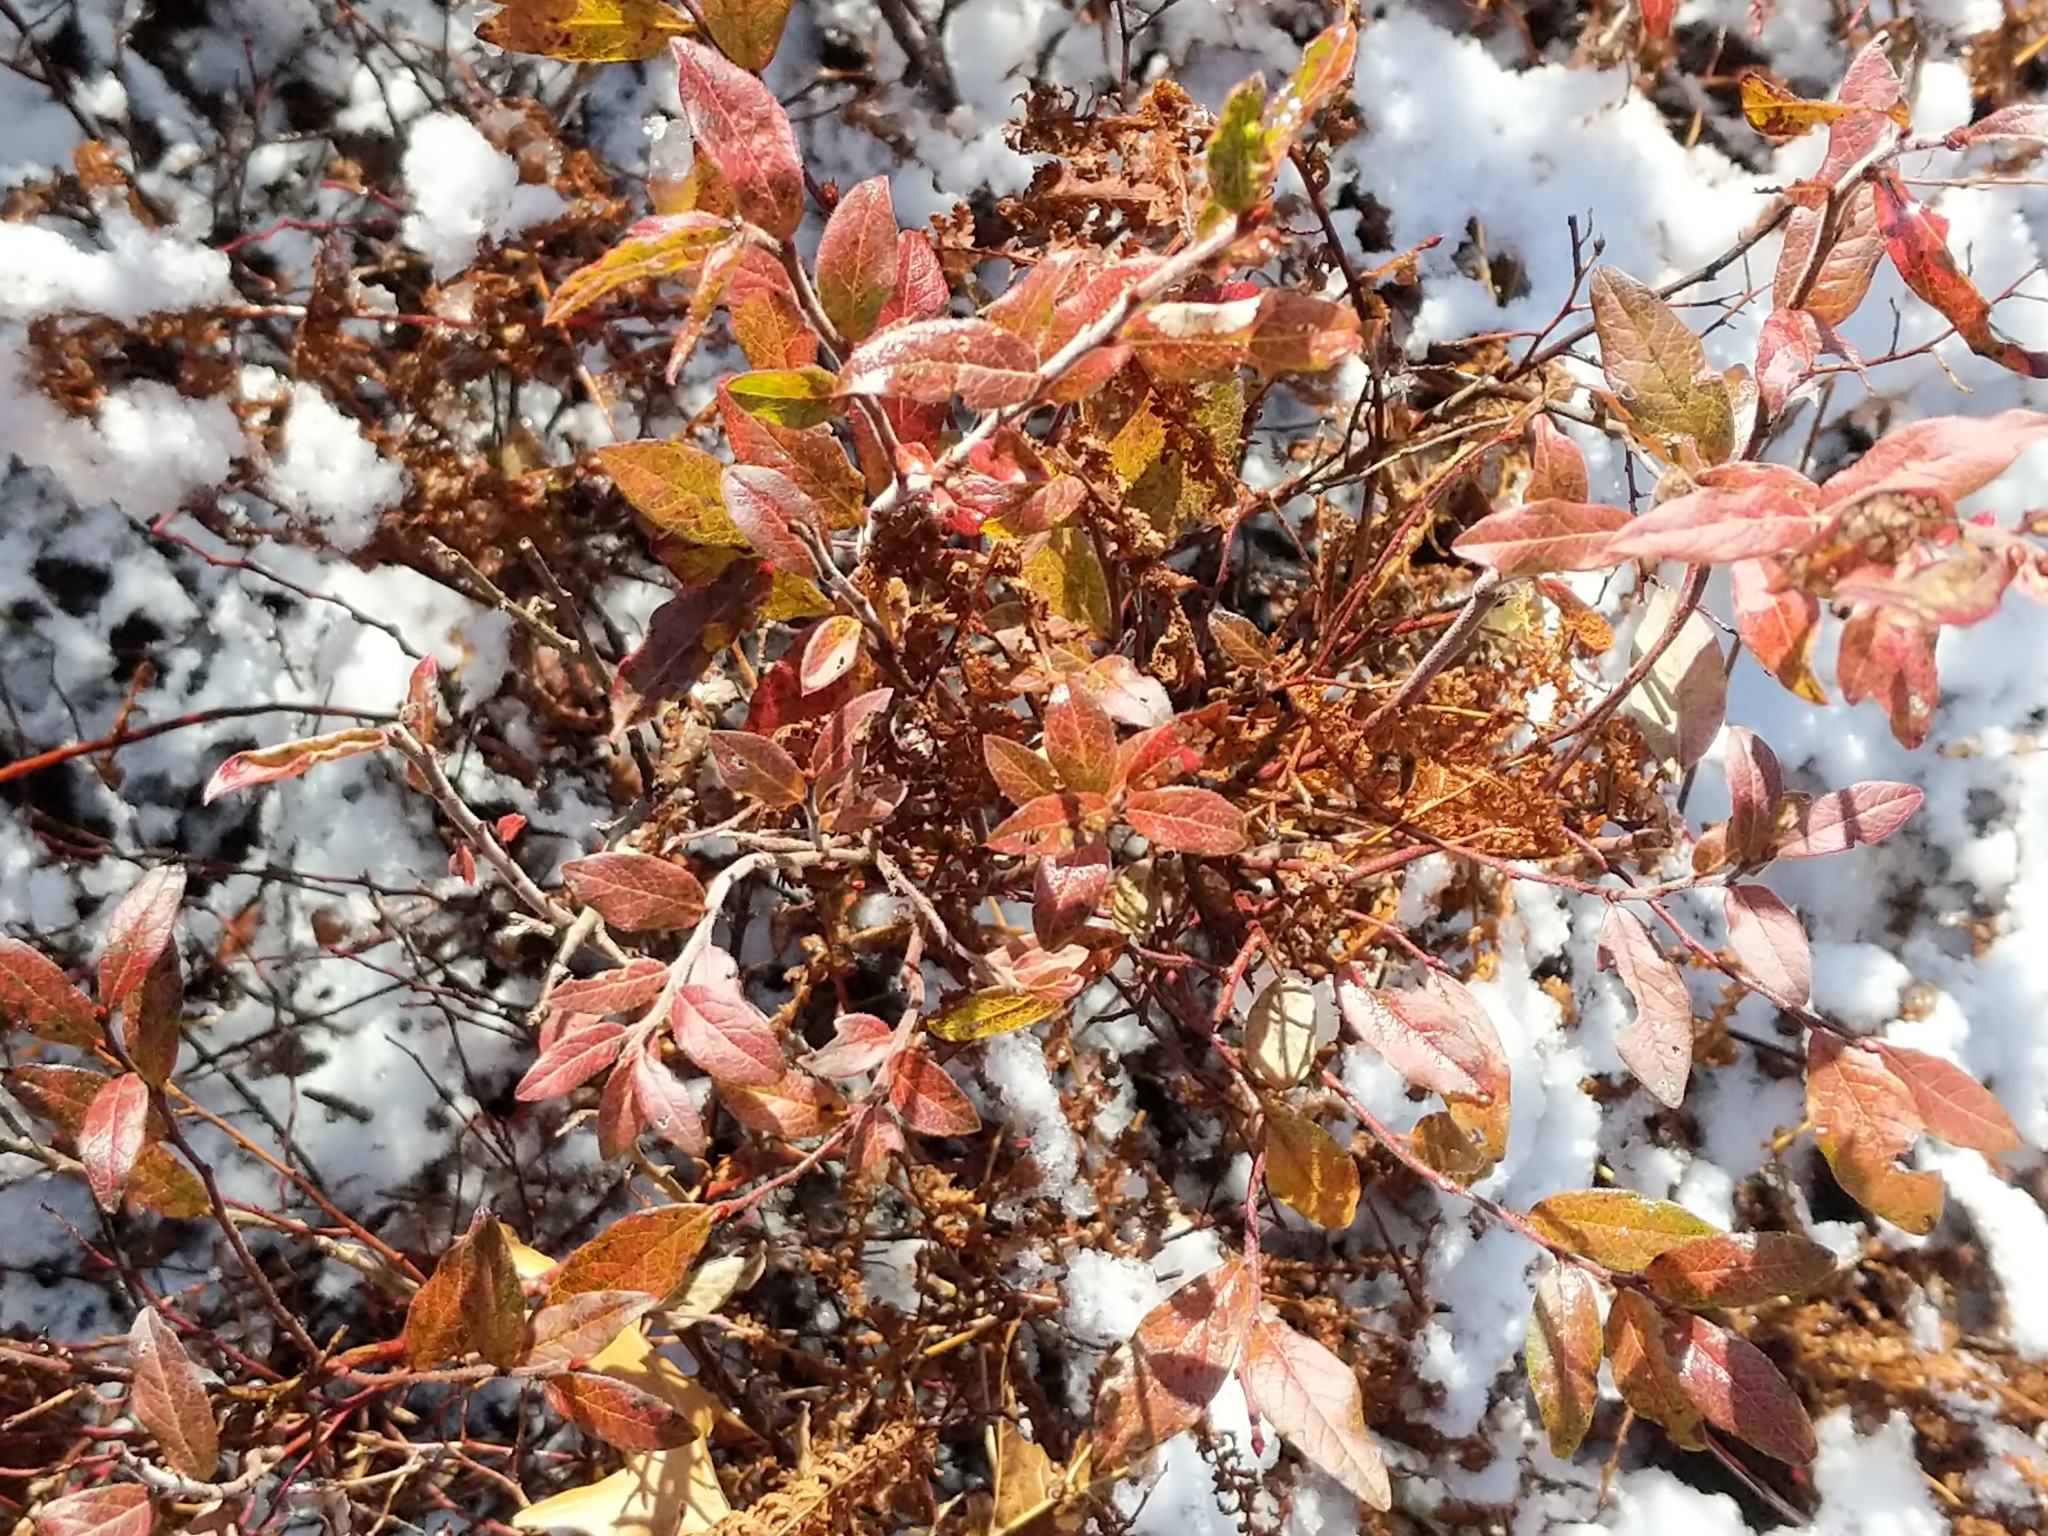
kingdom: Plantae
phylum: Tracheophyta
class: Magnoliopsida
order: Ericales
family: Ericaceae
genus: Vaccinium
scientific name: Vaccinium myrtilloides
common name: Canada blueberry
